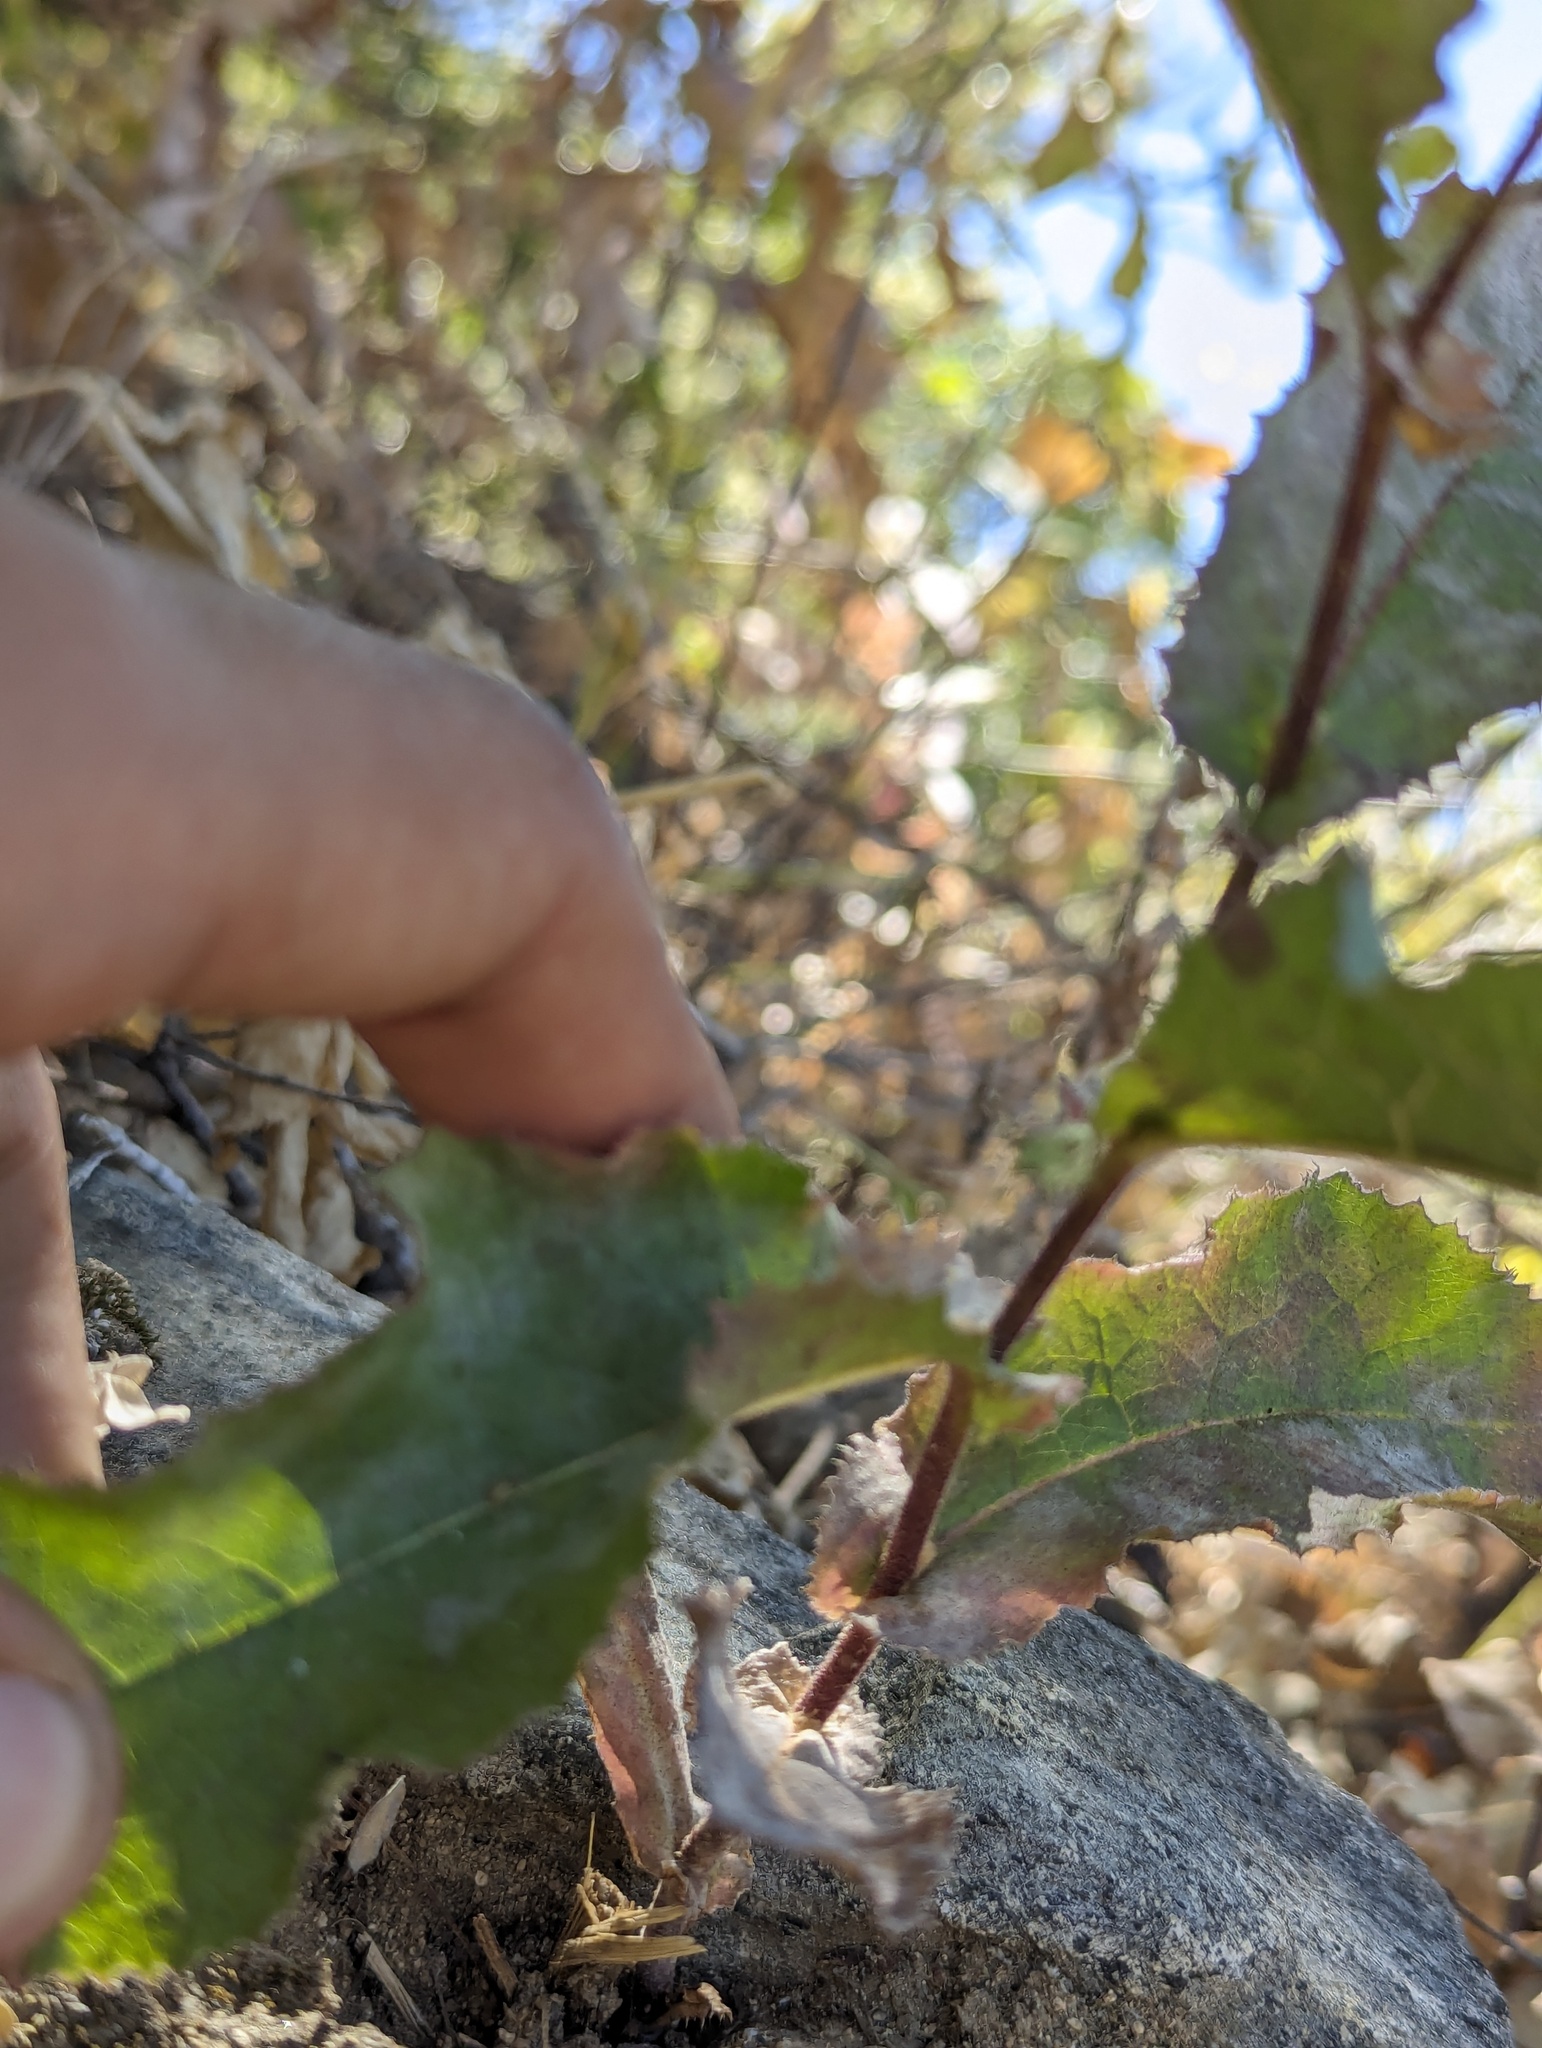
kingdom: Plantae
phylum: Tracheophyta
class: Magnoliopsida
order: Asterales
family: Asteraceae
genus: Acourtia
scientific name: Acourtia pinetorum
